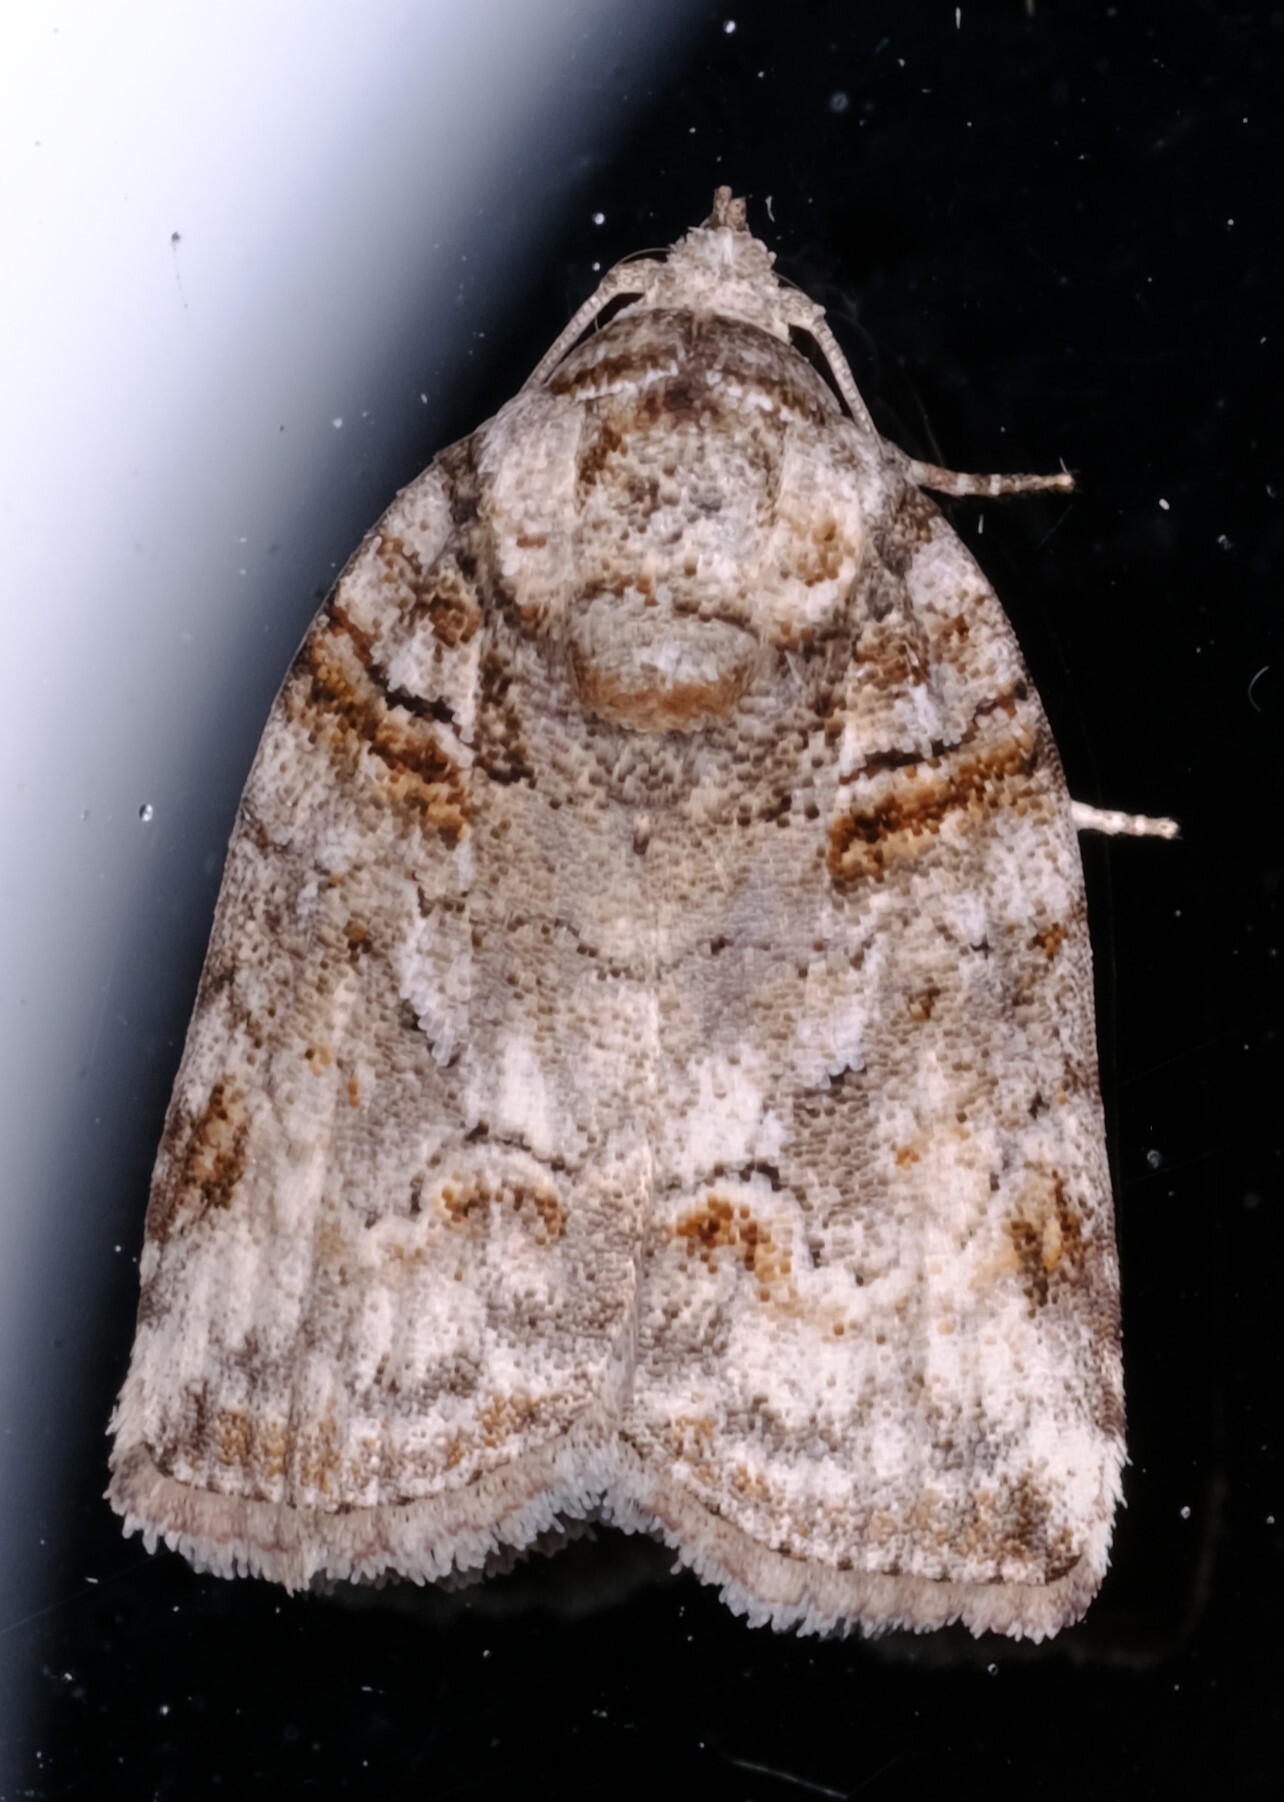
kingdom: Animalia
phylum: Arthropoda
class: Insecta
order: Lepidoptera
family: Nolidae
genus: Garella
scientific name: Garella vallata
